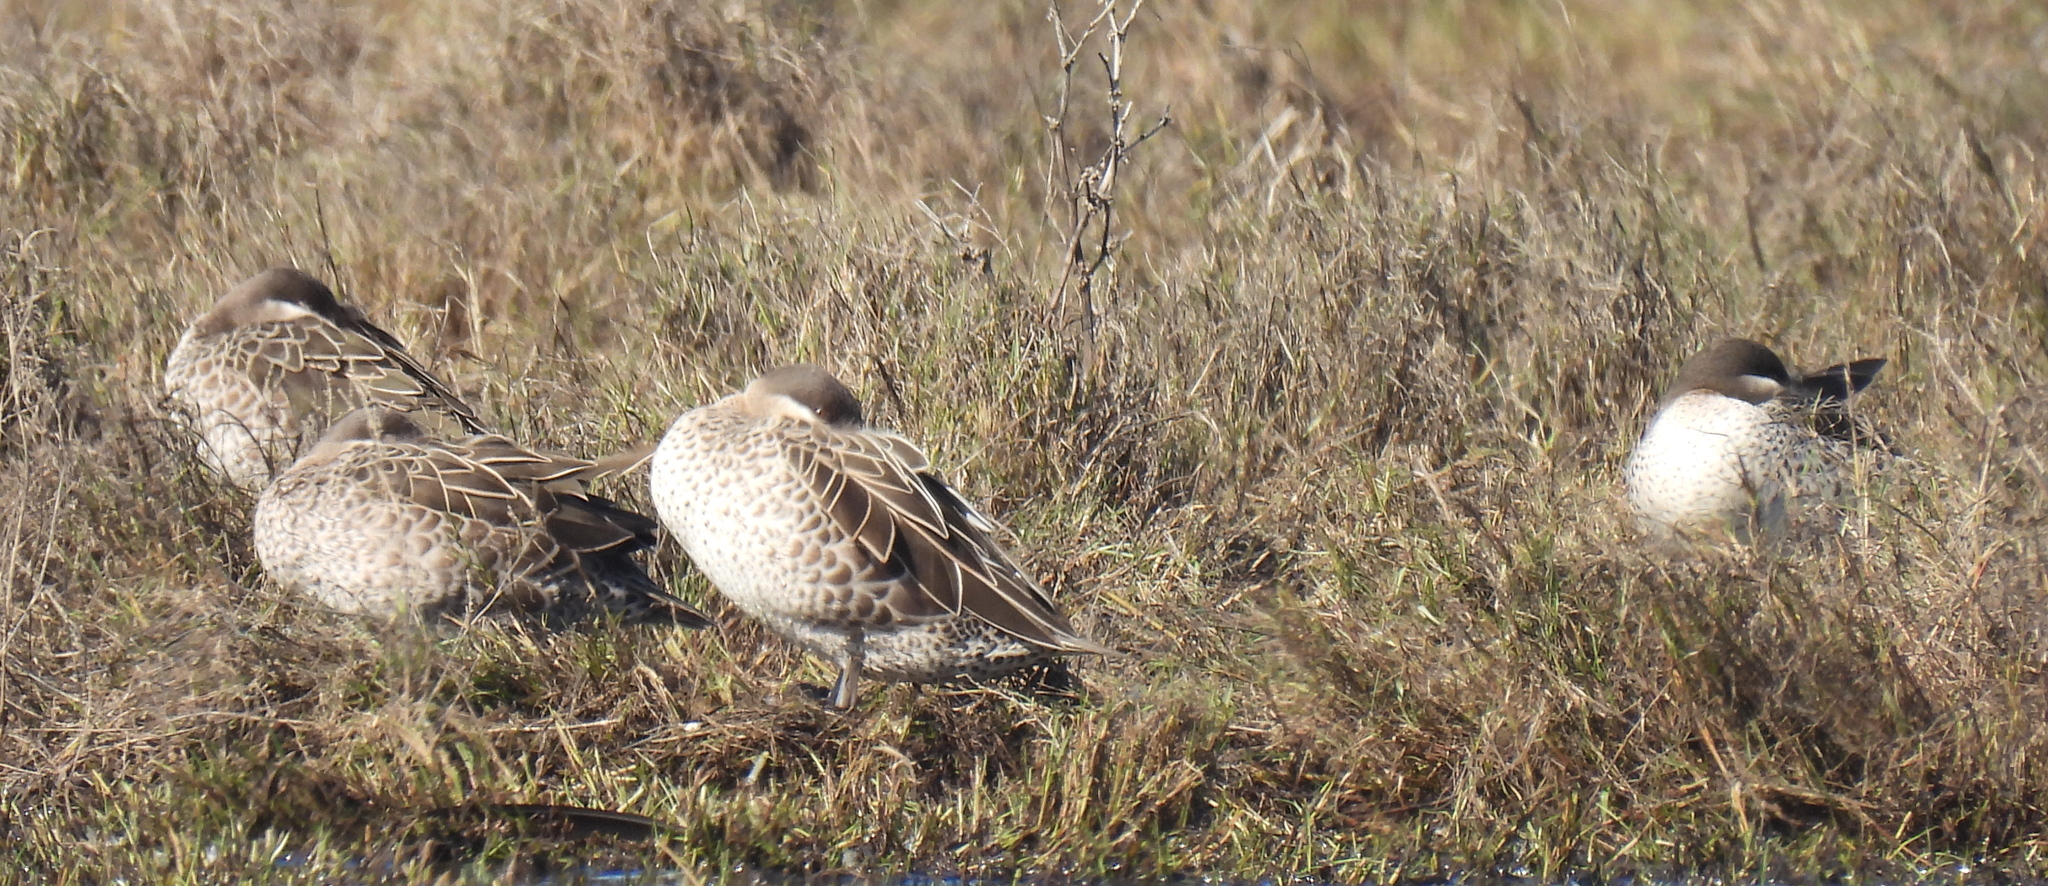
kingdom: Animalia
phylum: Chordata
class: Aves
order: Anseriformes
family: Anatidae
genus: Anas
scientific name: Anas erythrorhyncha
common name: Red-billed teal
